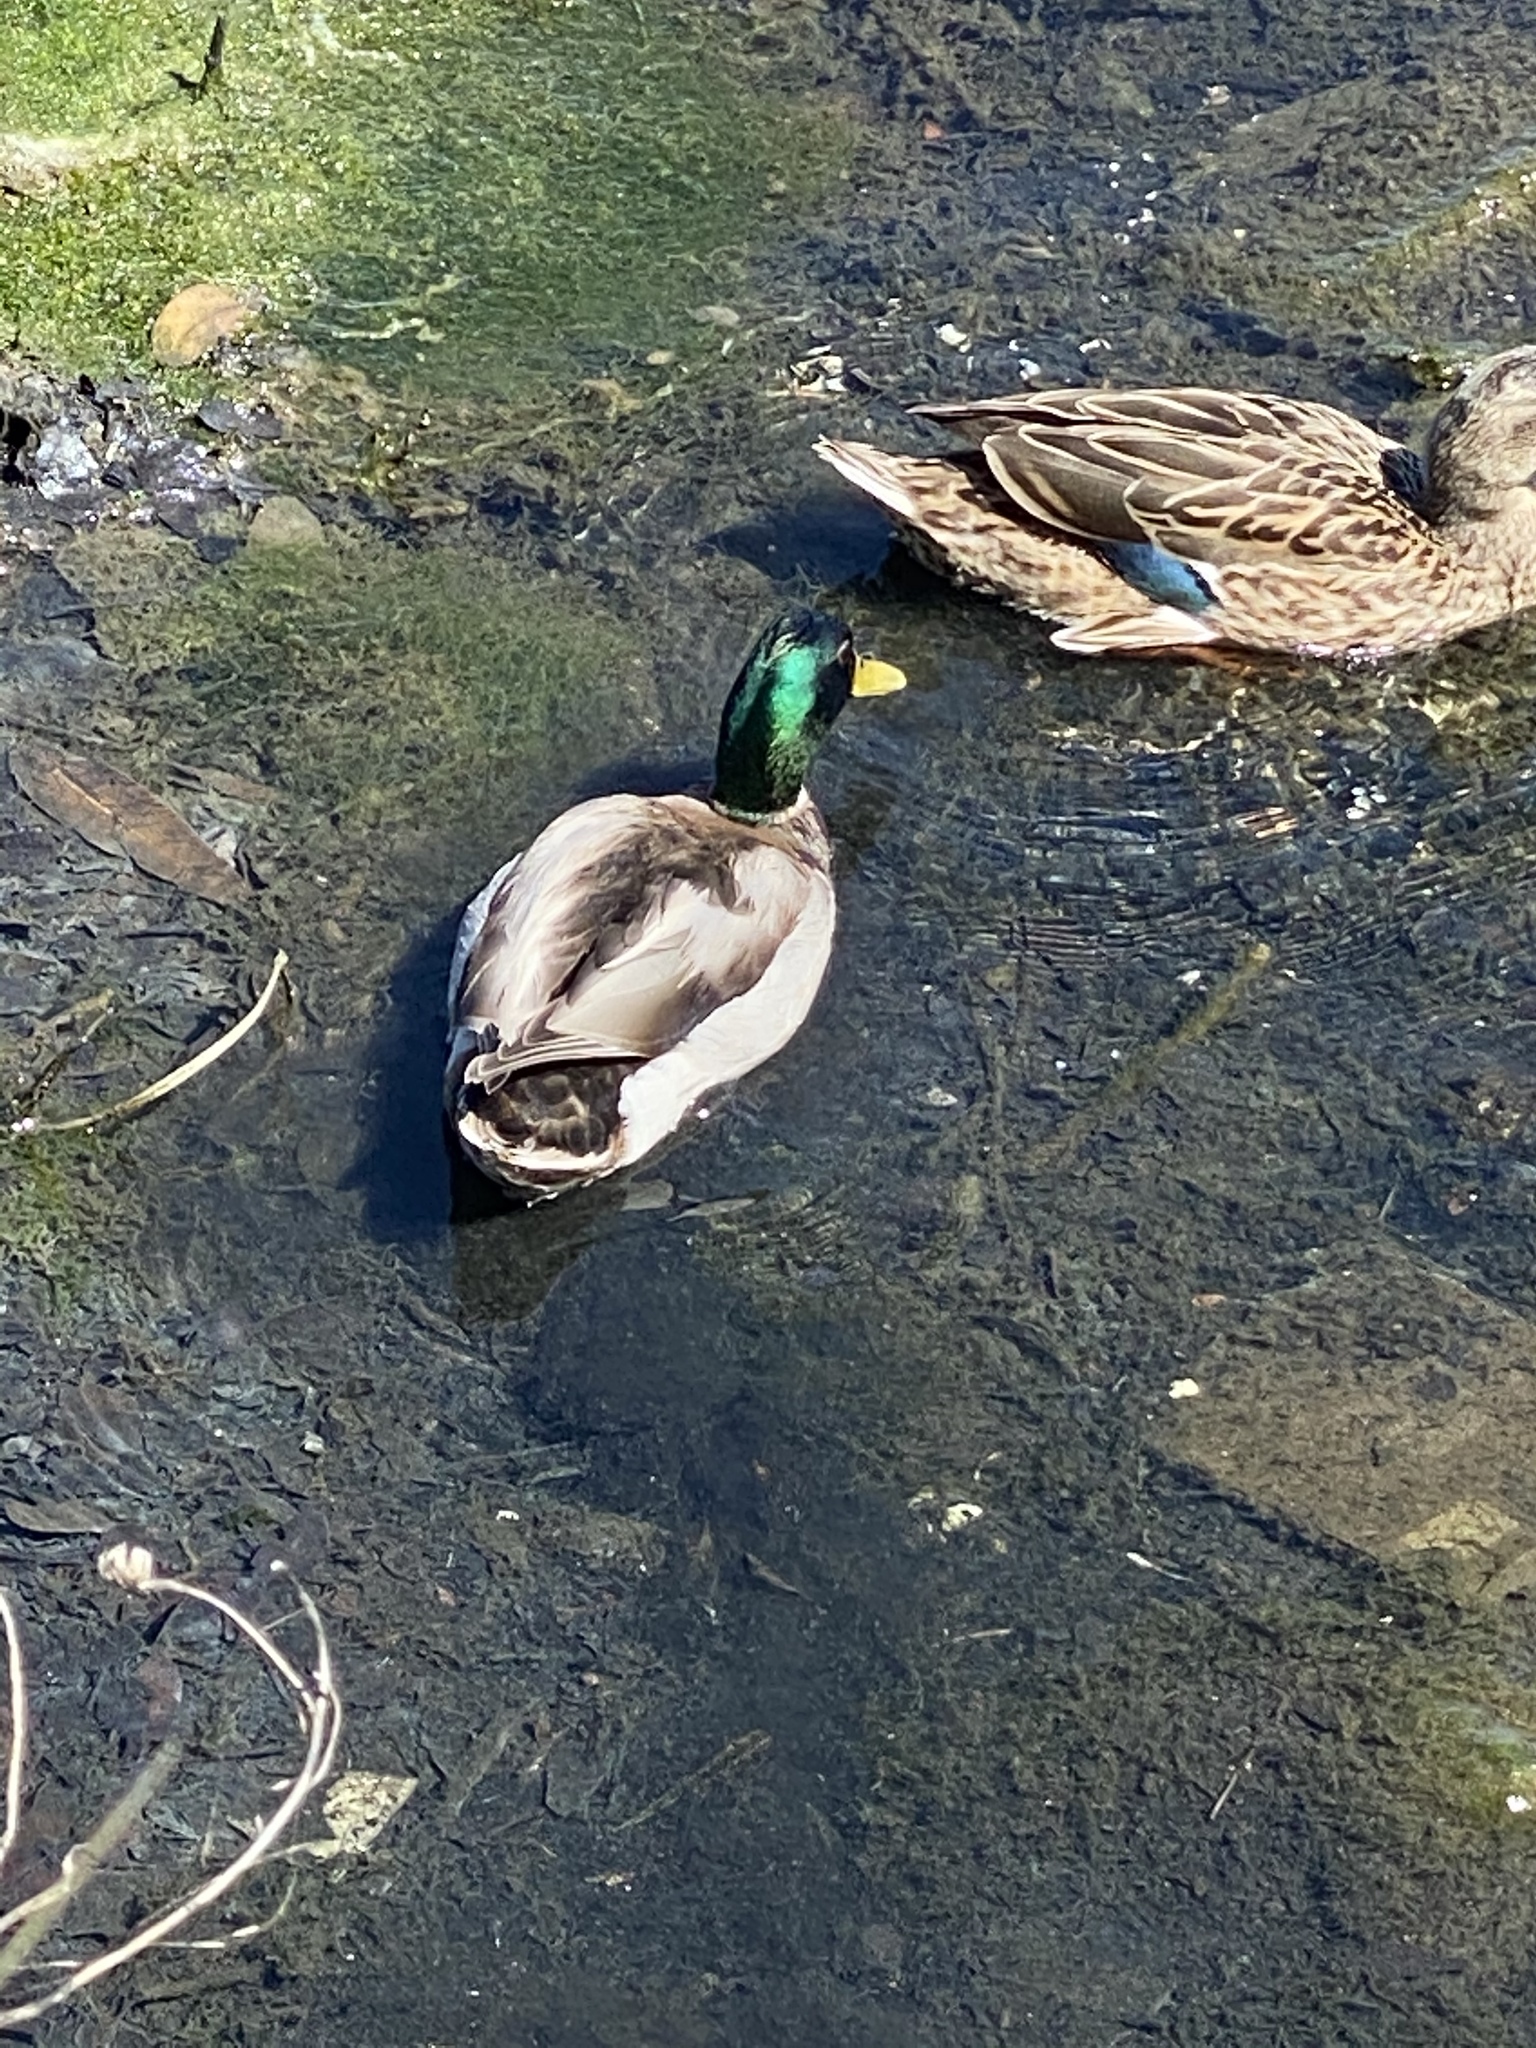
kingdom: Animalia
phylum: Chordata
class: Aves
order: Anseriformes
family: Anatidae
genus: Anas
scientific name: Anas platyrhynchos
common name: Mallard
